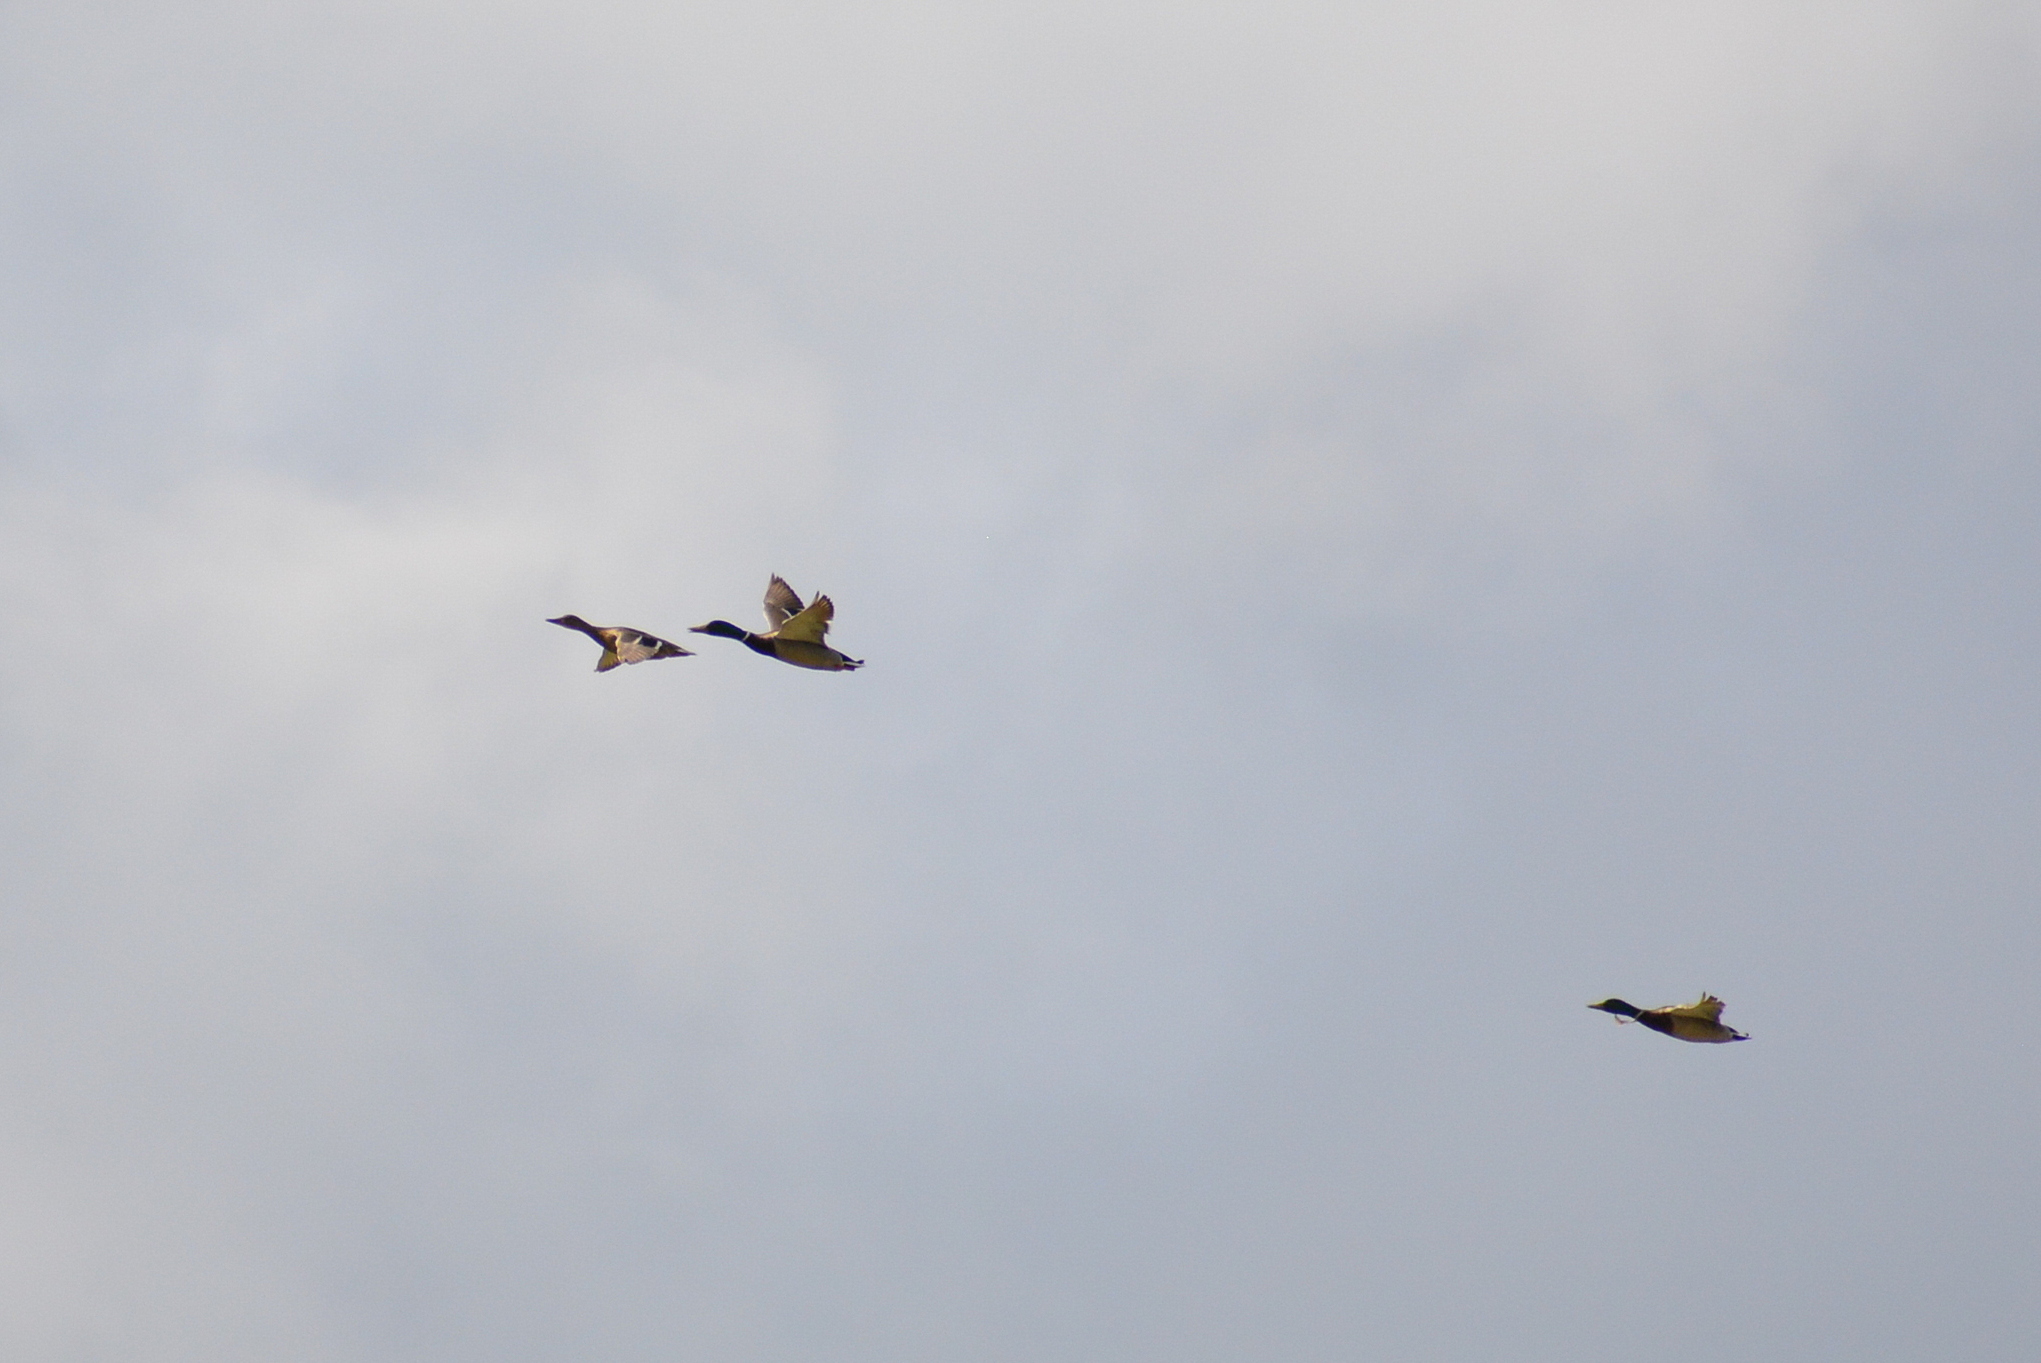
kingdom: Animalia
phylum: Chordata
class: Aves
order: Anseriformes
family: Anatidae
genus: Anas
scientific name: Anas platyrhynchos
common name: Mallard
